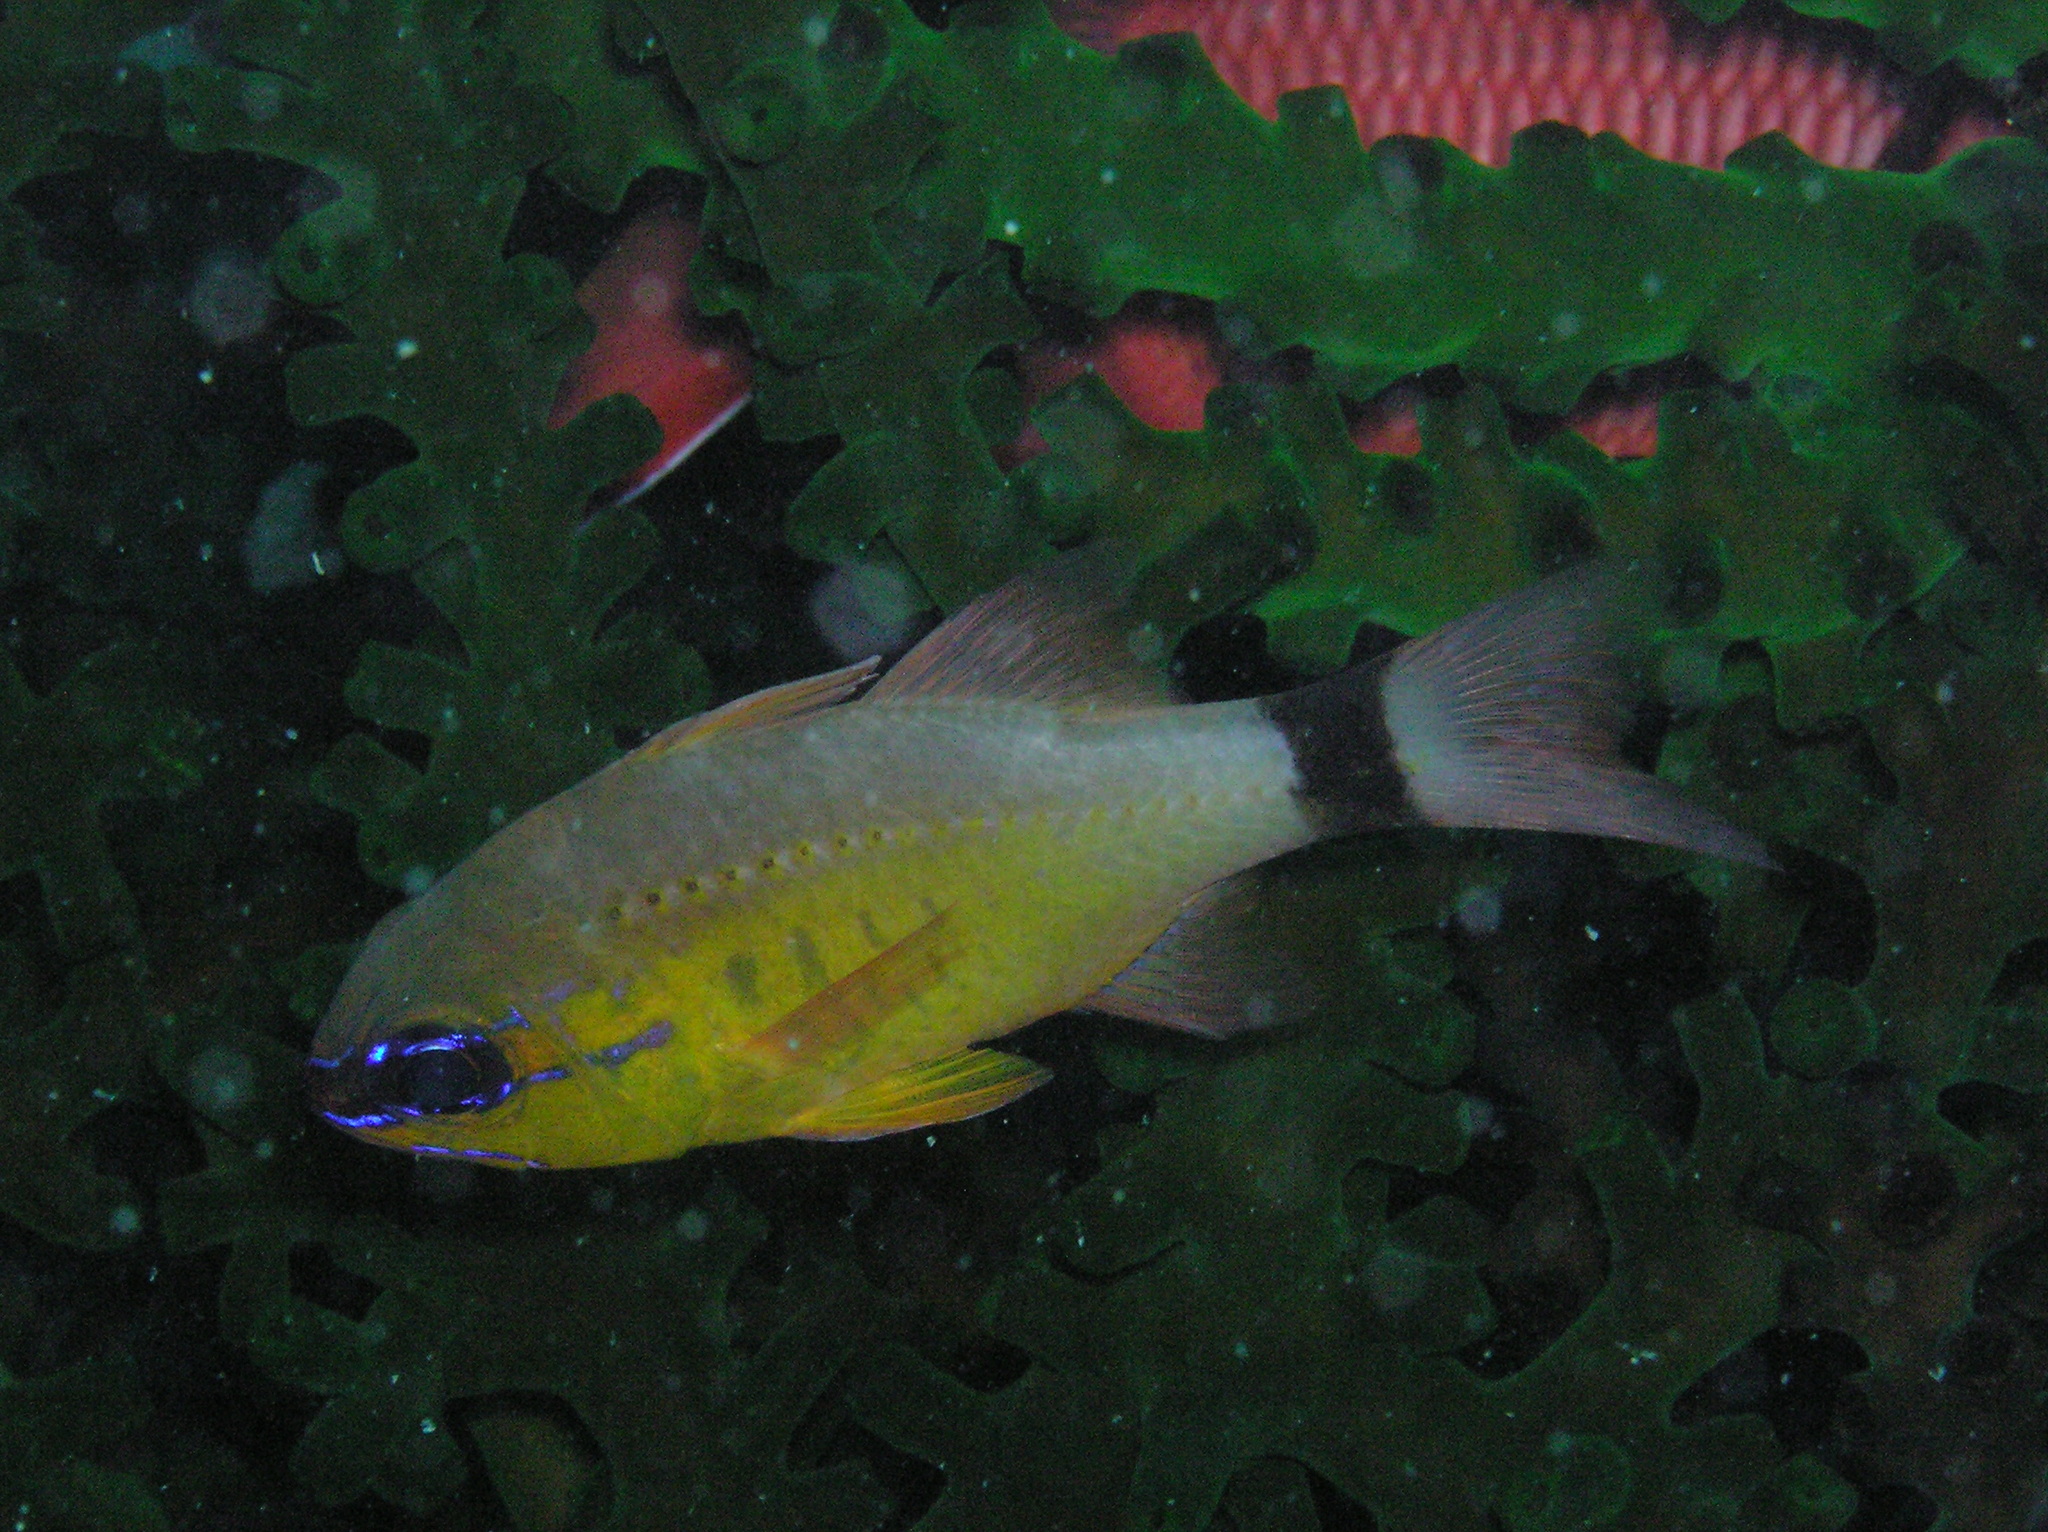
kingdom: Animalia
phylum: Chordata
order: Perciformes
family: Apogonidae
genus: Ostorhinchus
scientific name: Ostorhinchus aureus
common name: Ring-tailed cardinalfish
